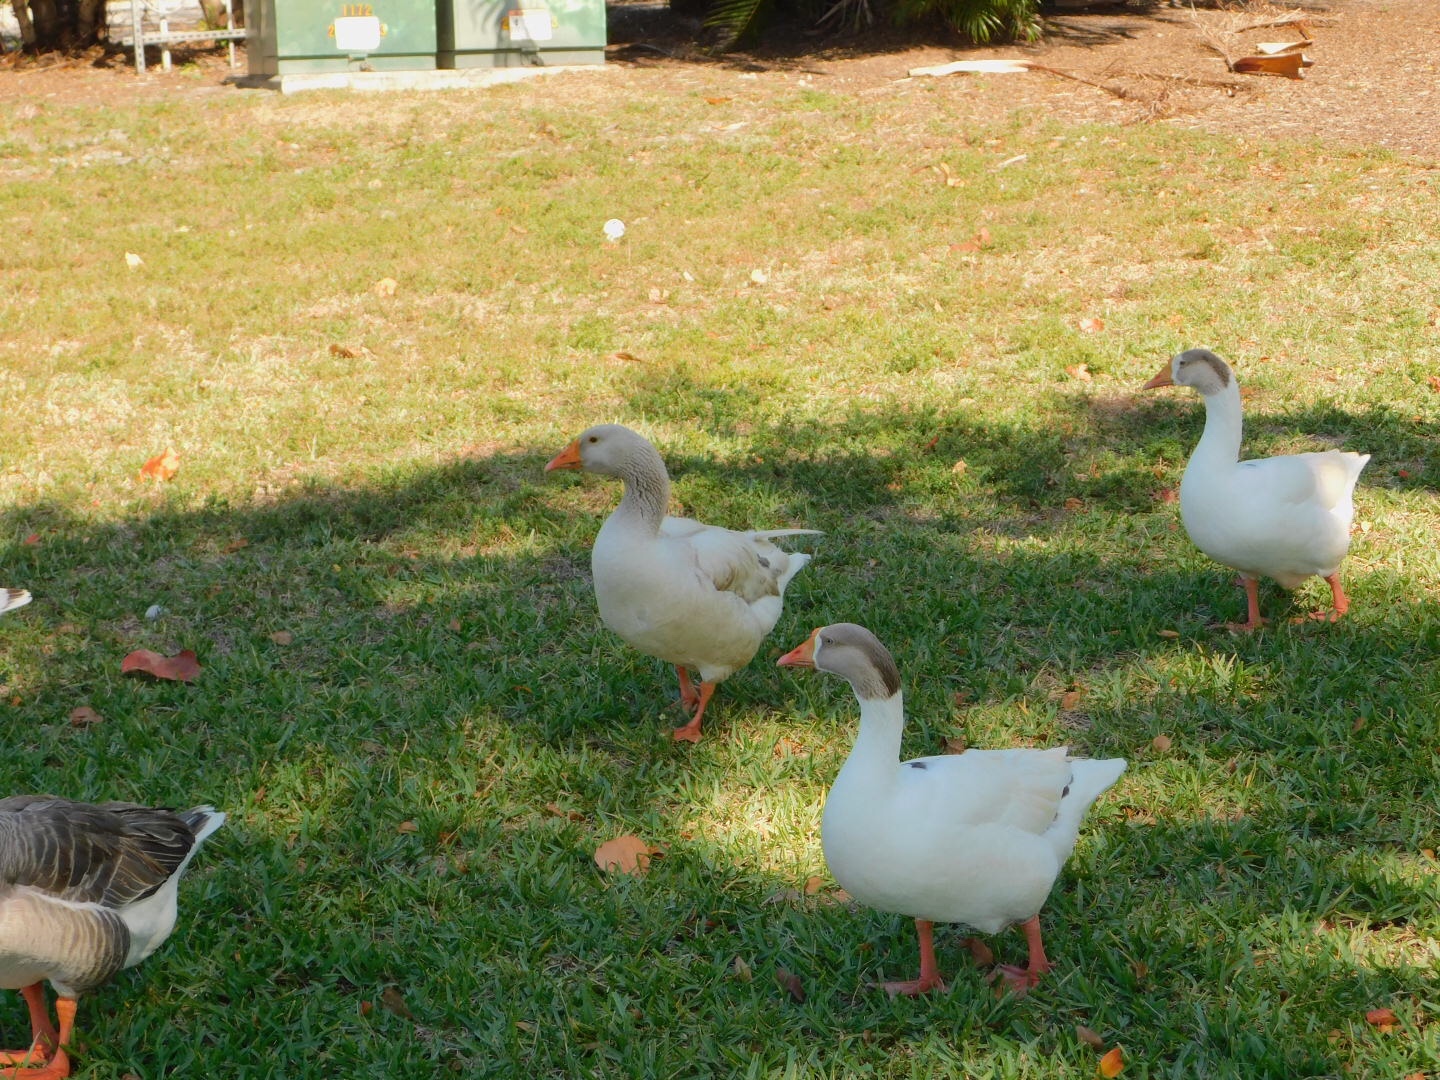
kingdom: Animalia
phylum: Chordata
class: Aves
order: Anseriformes
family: Anatidae
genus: Anser
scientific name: Anser
